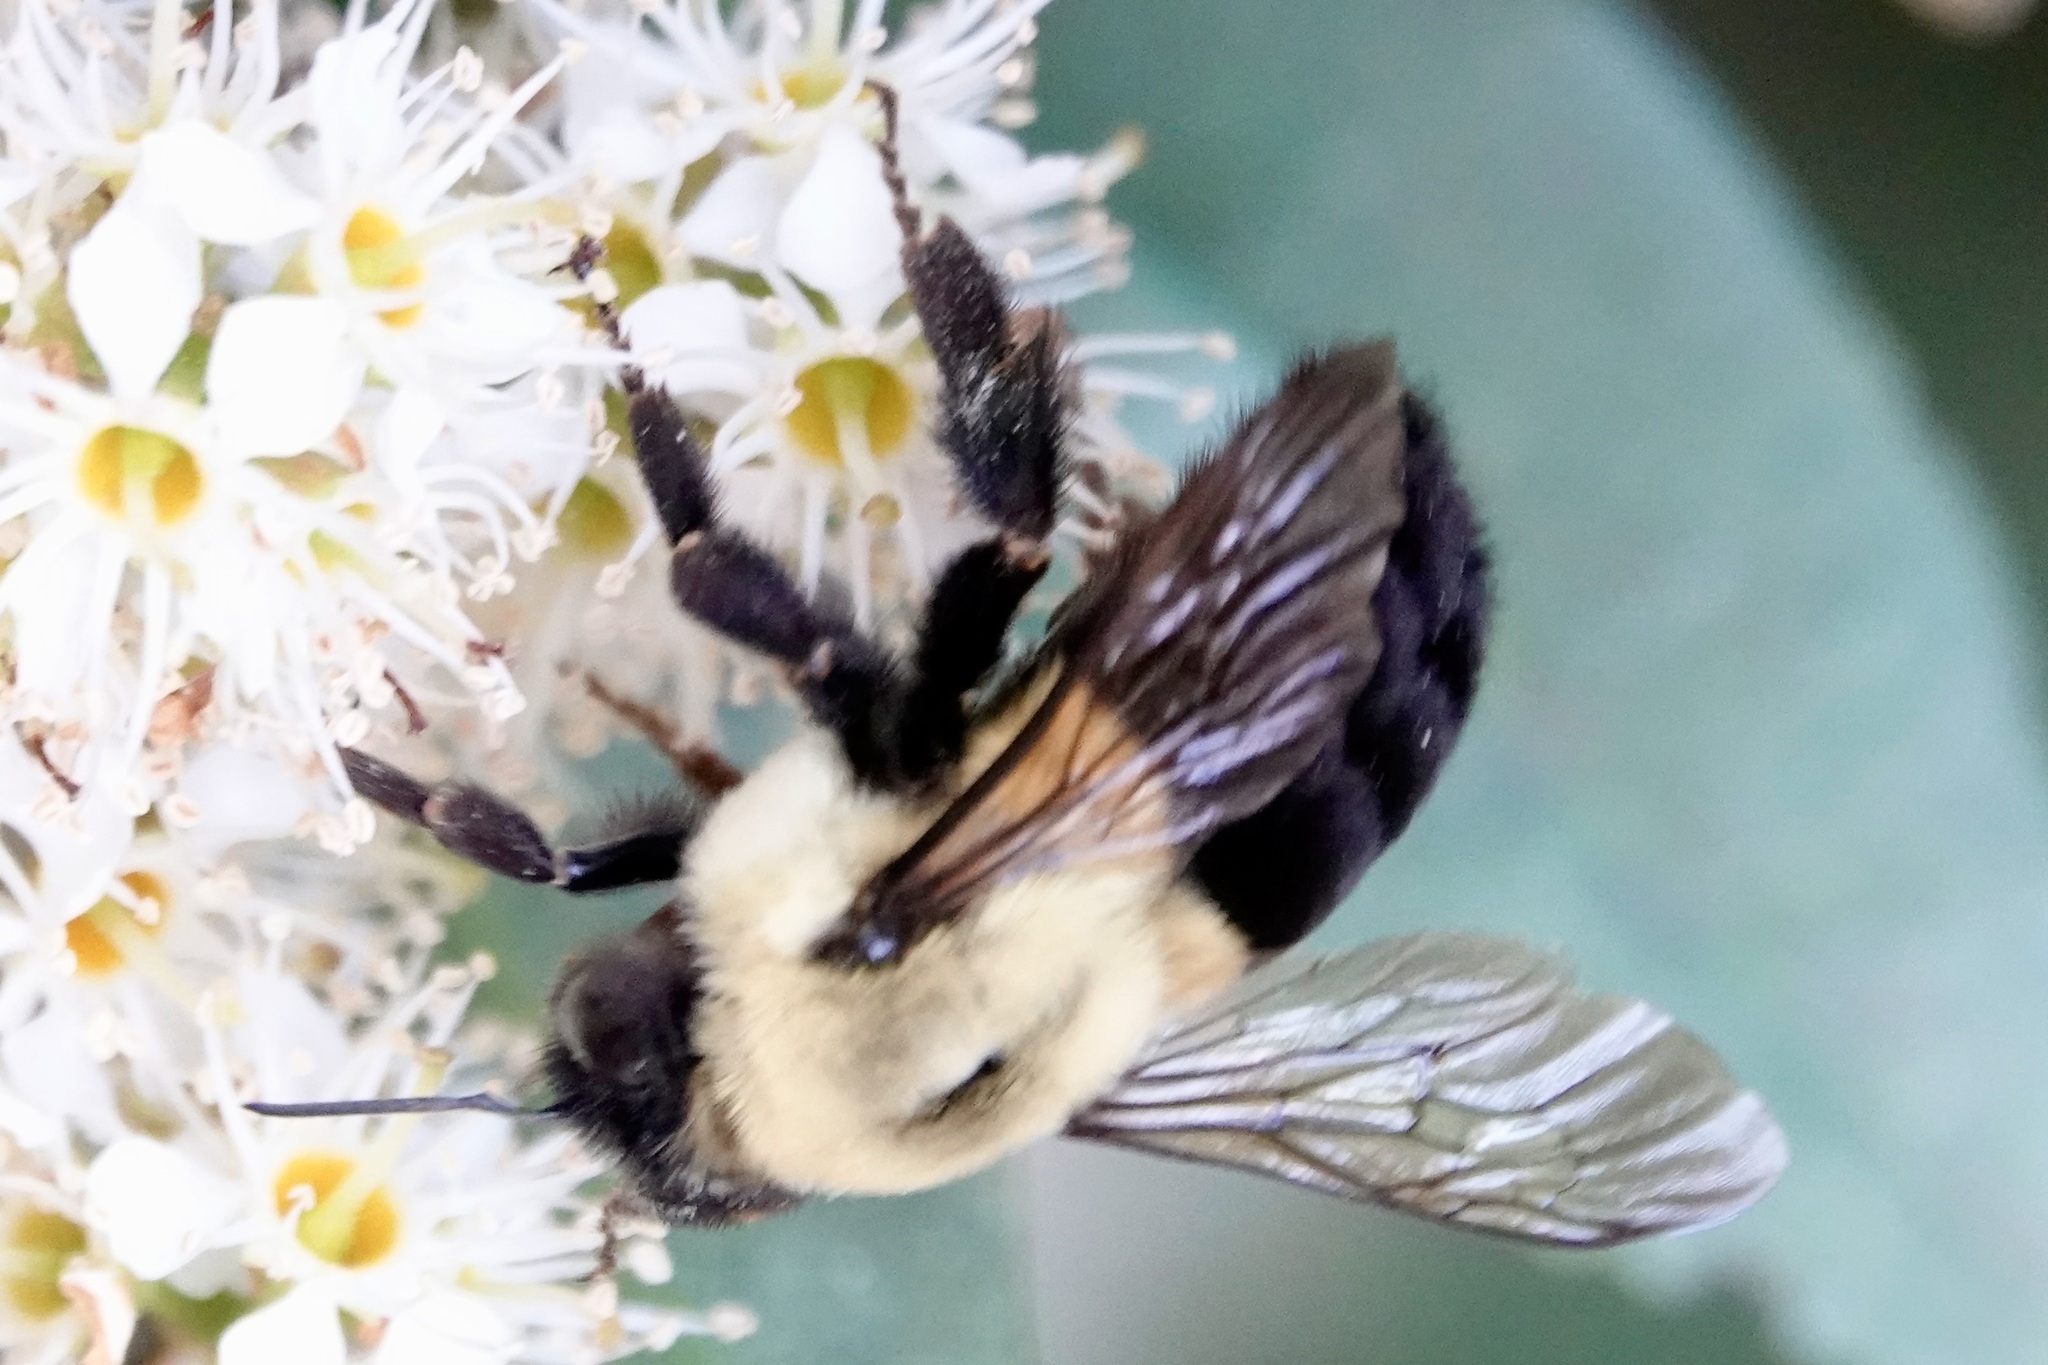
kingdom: Animalia
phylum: Arthropoda
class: Insecta
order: Hymenoptera
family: Apidae
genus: Bombus
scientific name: Bombus impatiens
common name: Common eastern bumble bee
